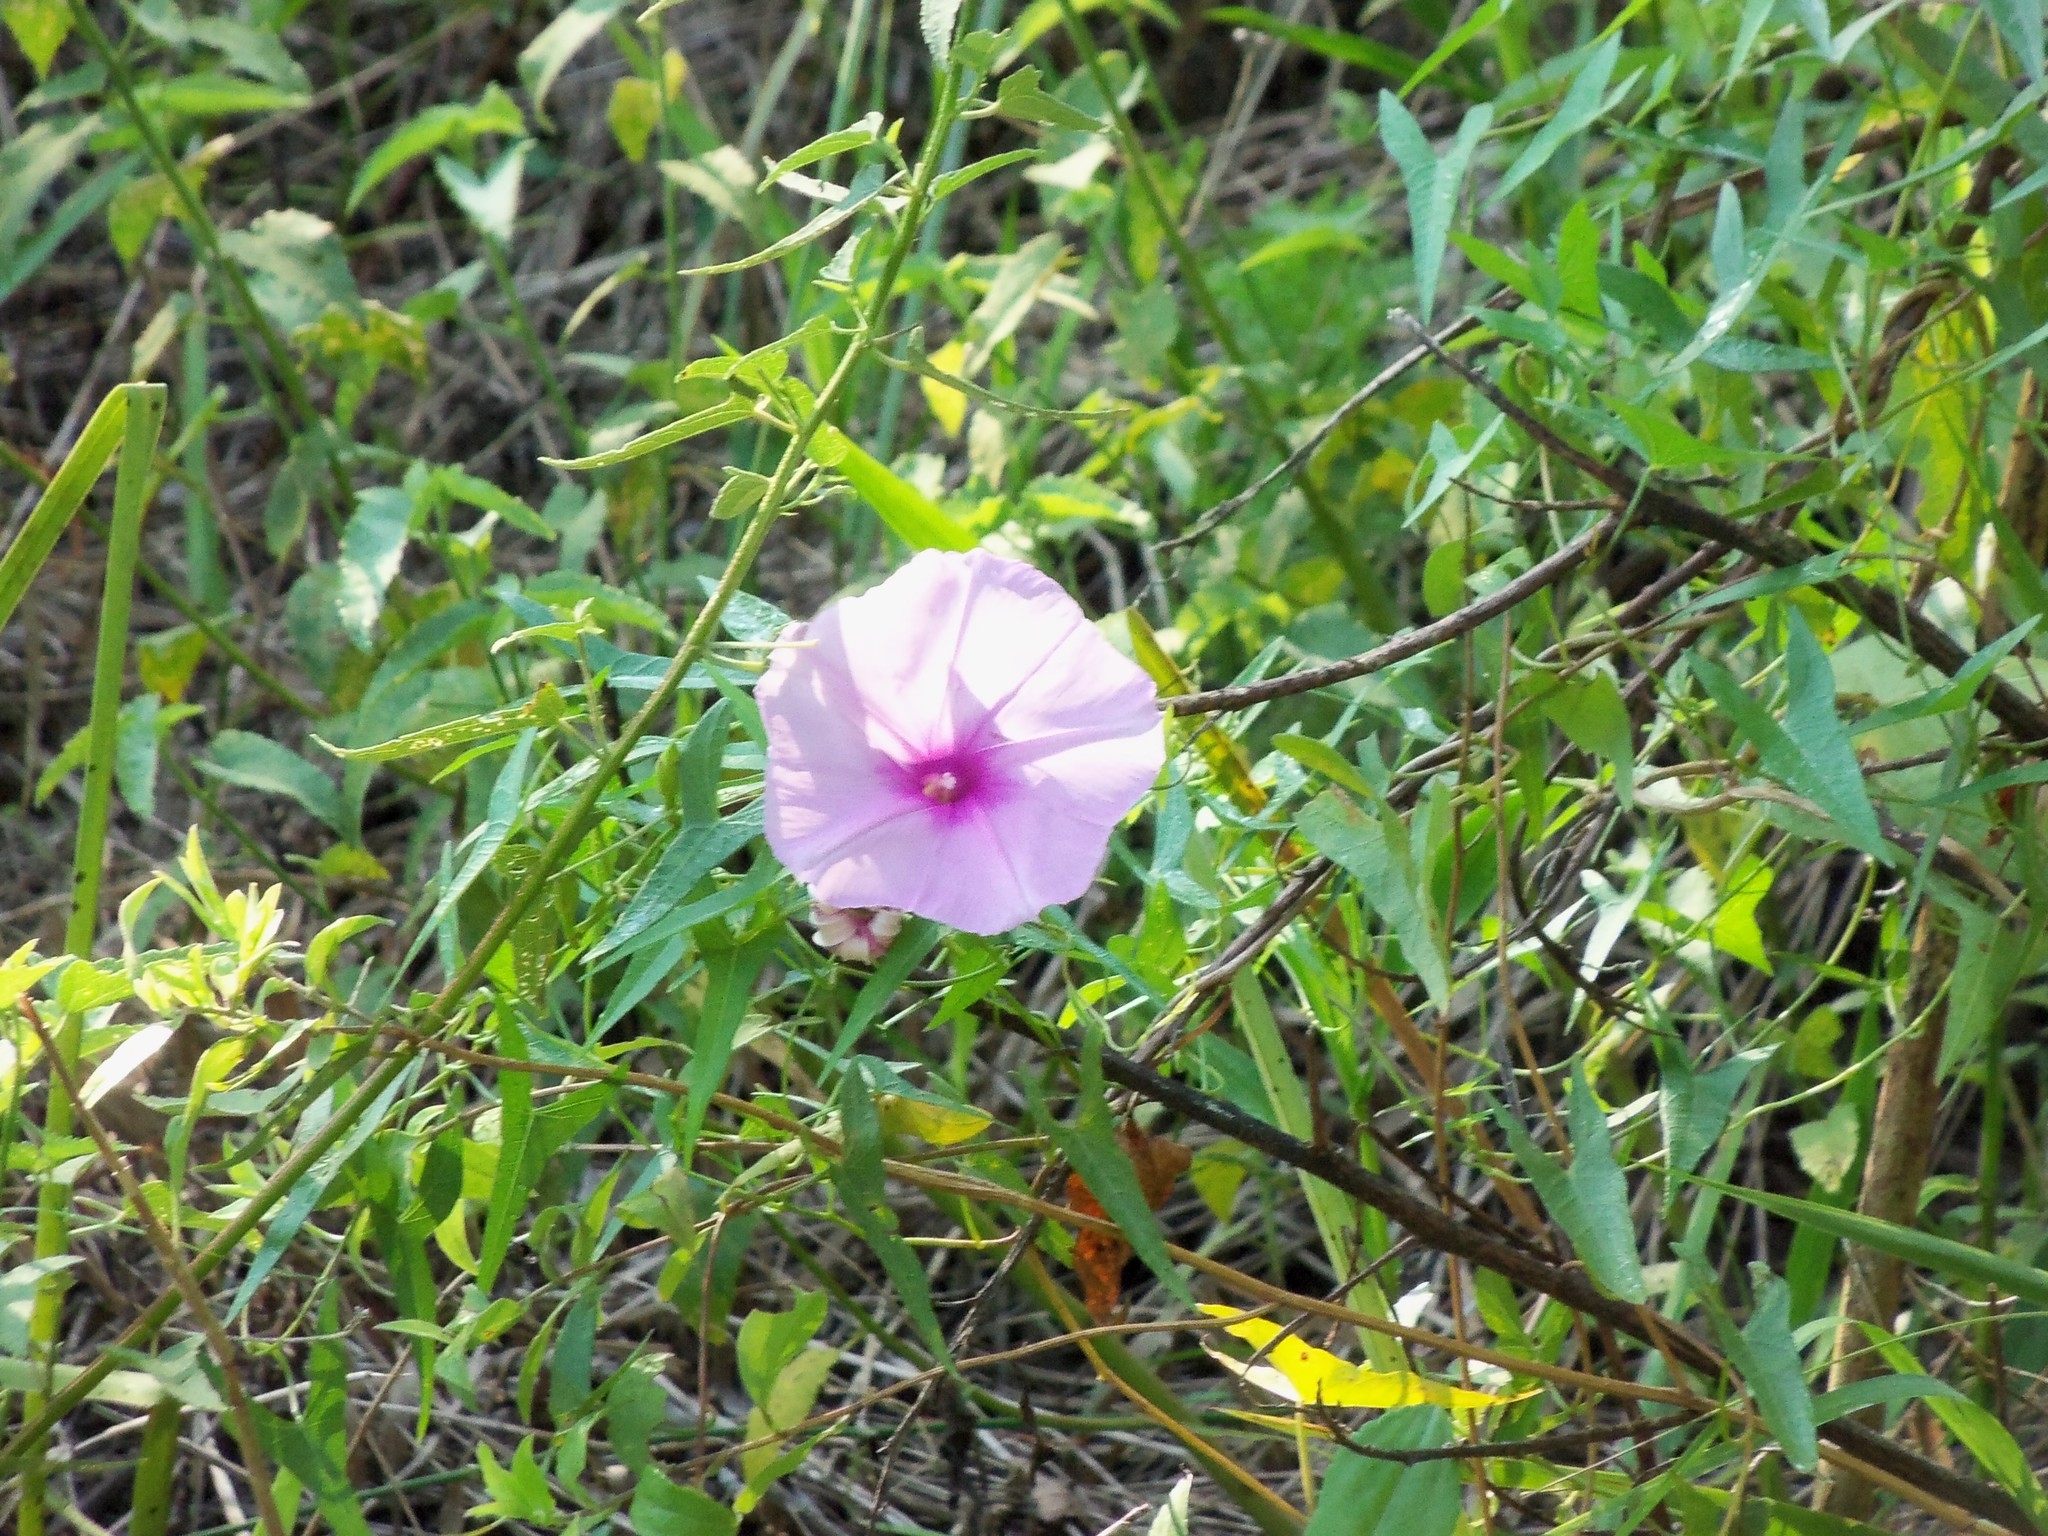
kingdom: Plantae
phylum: Tracheophyta
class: Magnoliopsida
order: Solanales
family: Convolvulaceae
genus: Ipomoea
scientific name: Ipomoea sagittata
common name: Saltmarsh morning glory
